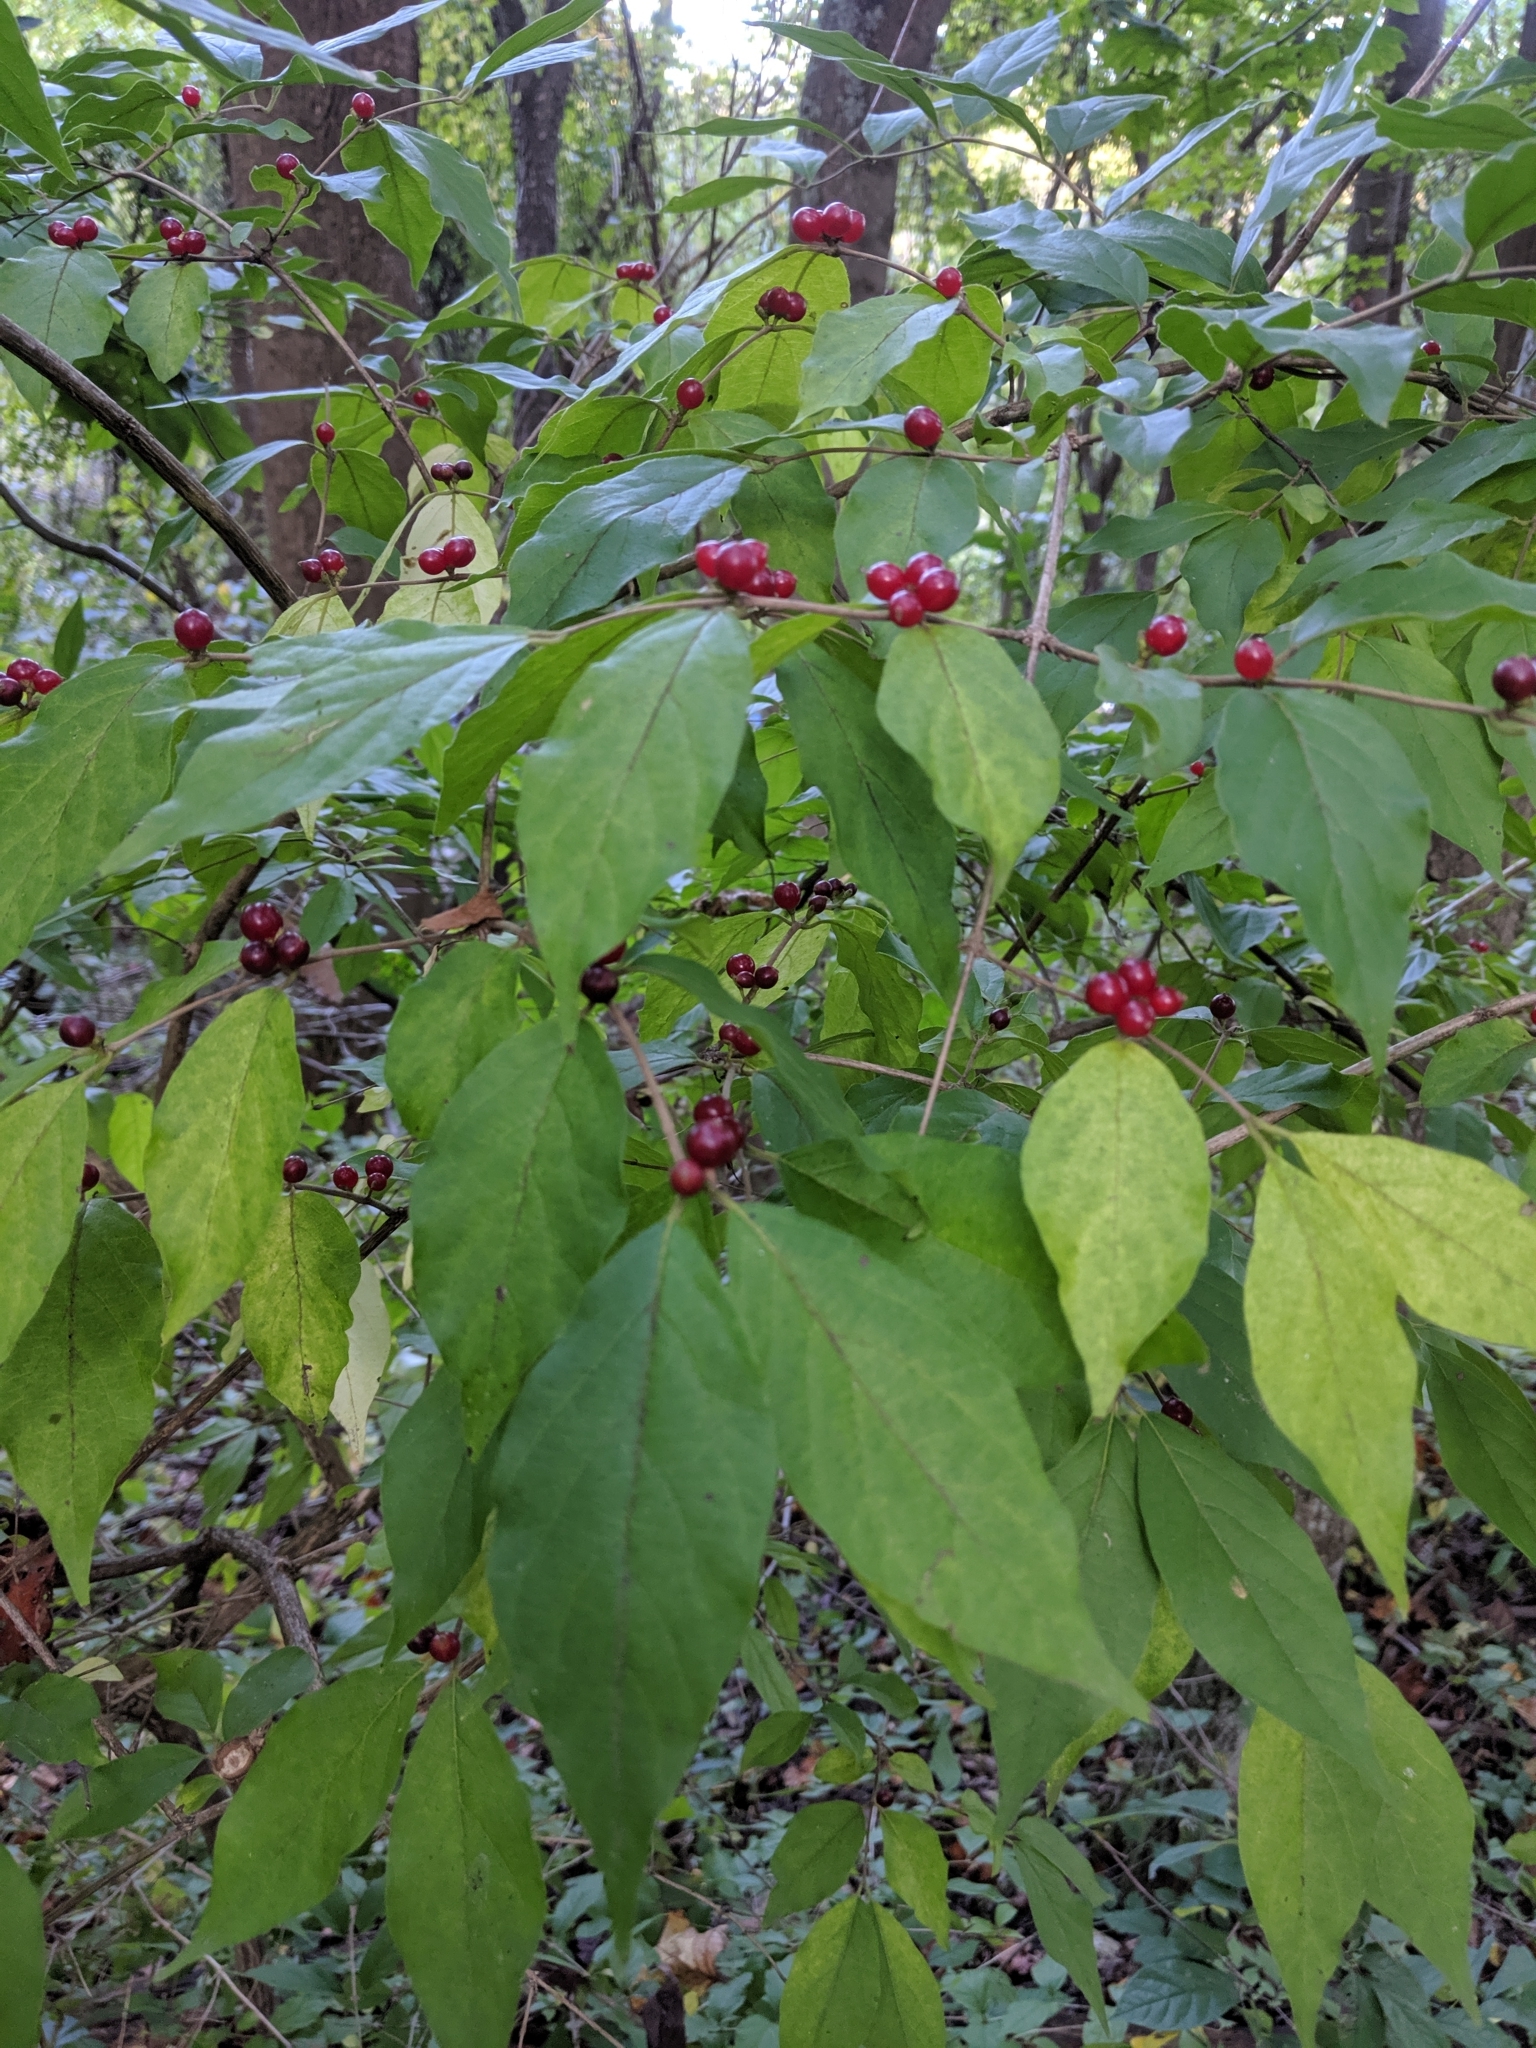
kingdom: Plantae
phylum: Tracheophyta
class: Magnoliopsida
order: Dipsacales
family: Caprifoliaceae
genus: Lonicera
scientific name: Lonicera maackii
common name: Amur honeysuckle
